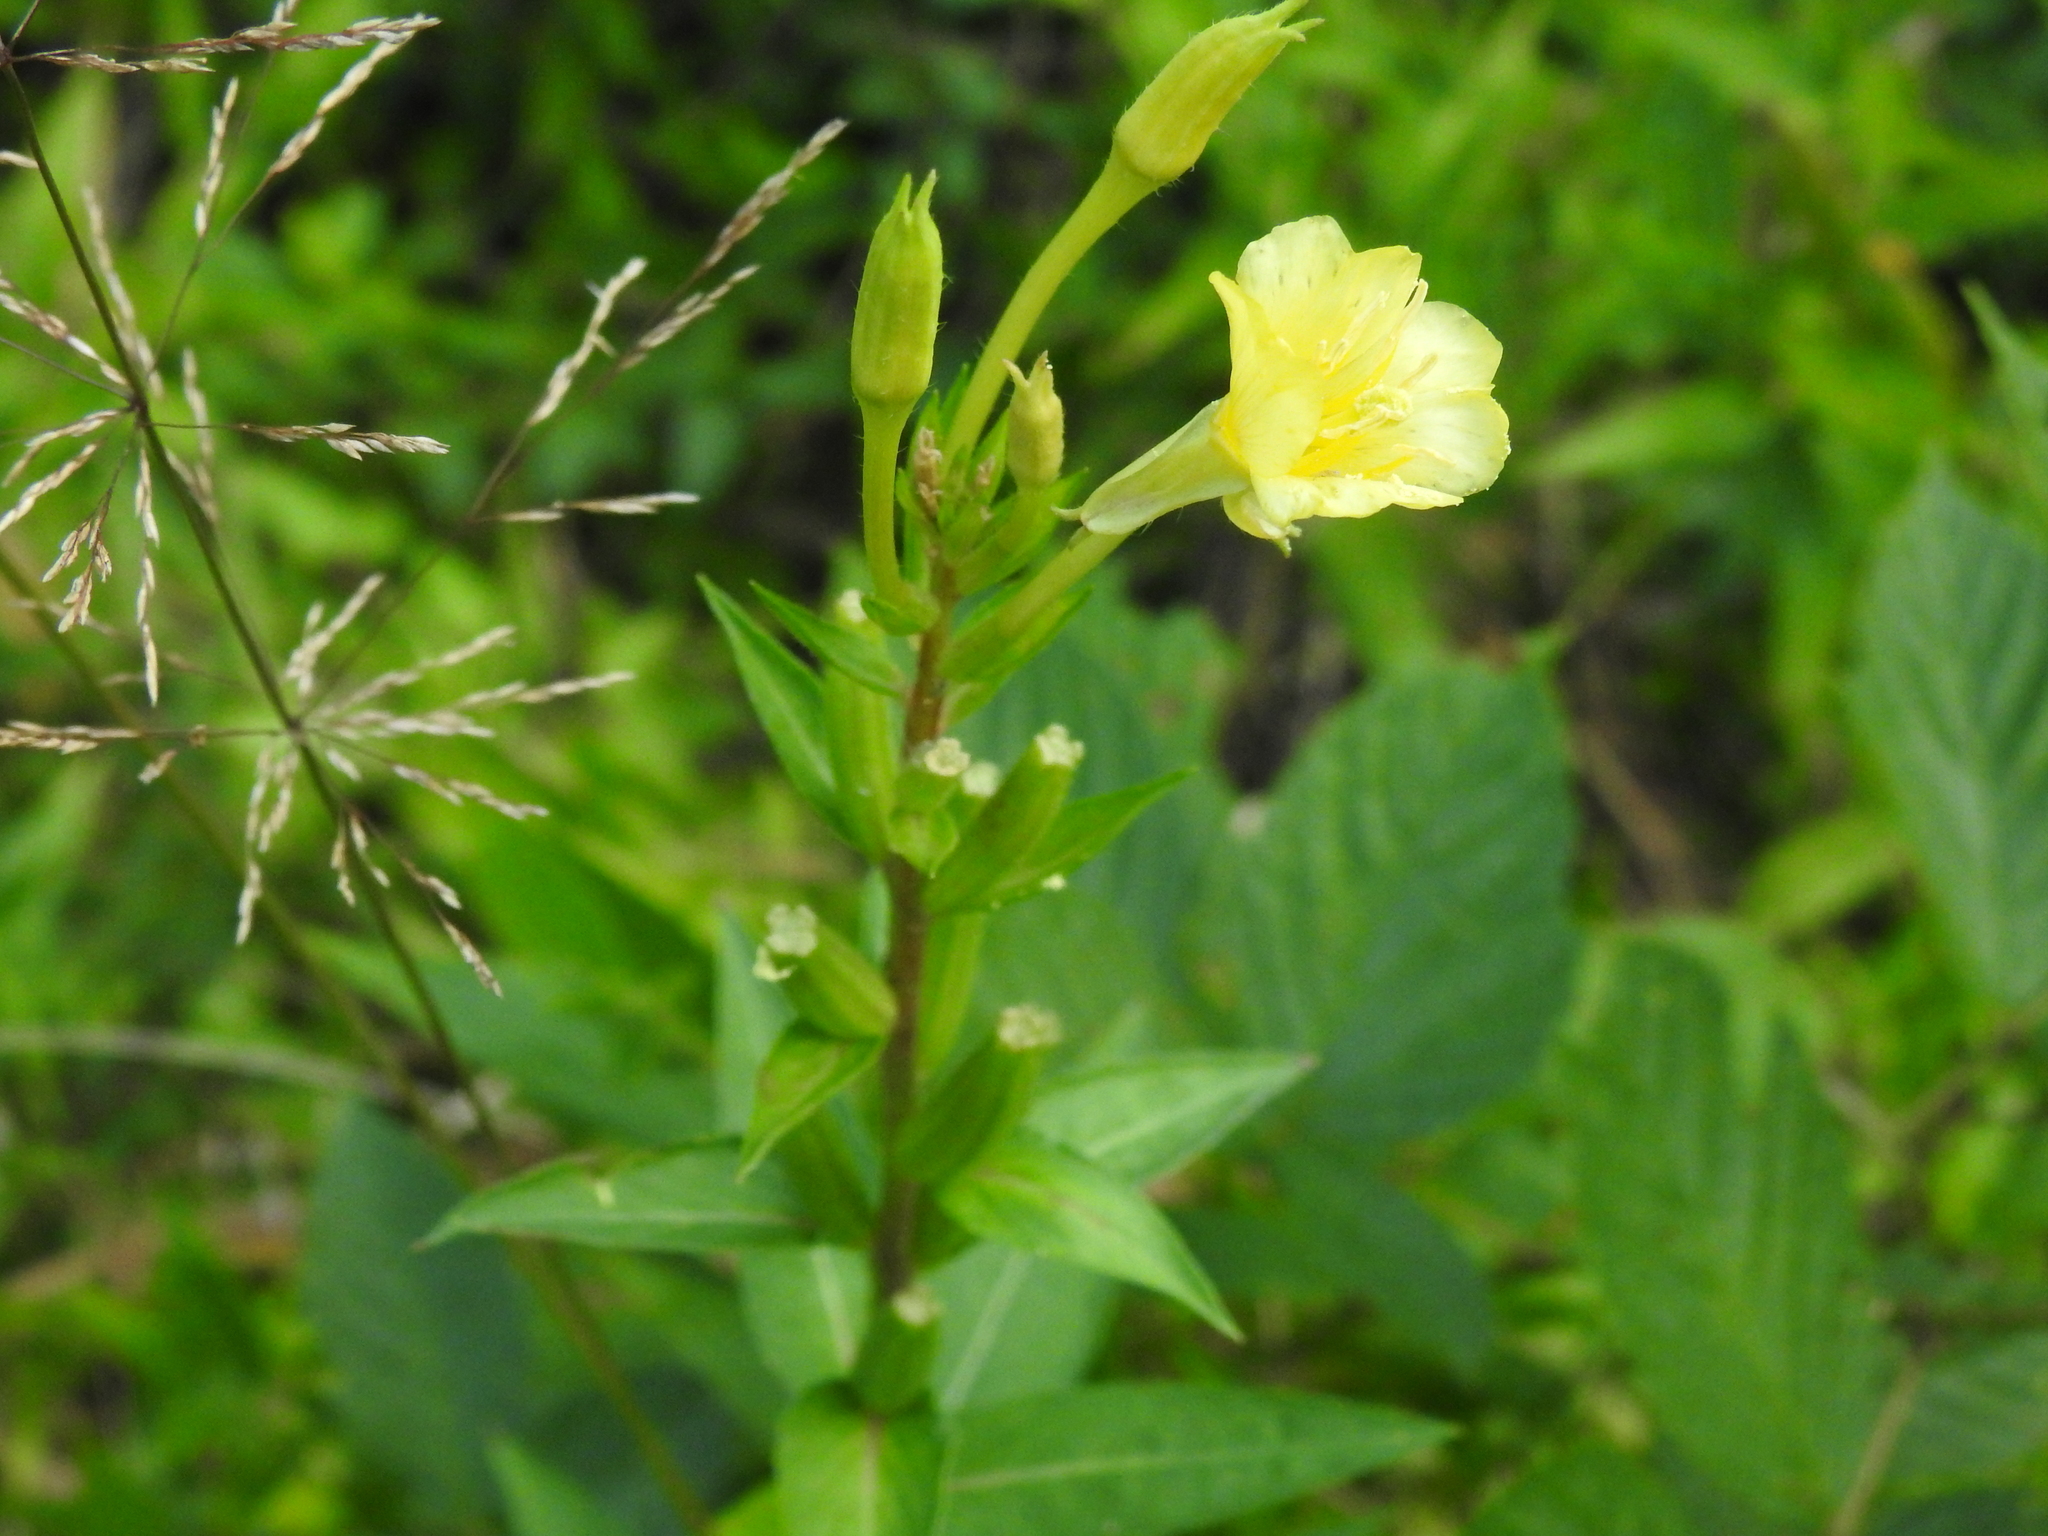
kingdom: Plantae
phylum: Tracheophyta
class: Magnoliopsida
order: Myrtales
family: Onagraceae
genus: Oenothera
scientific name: Oenothera biennis
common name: Common evening-primrose
